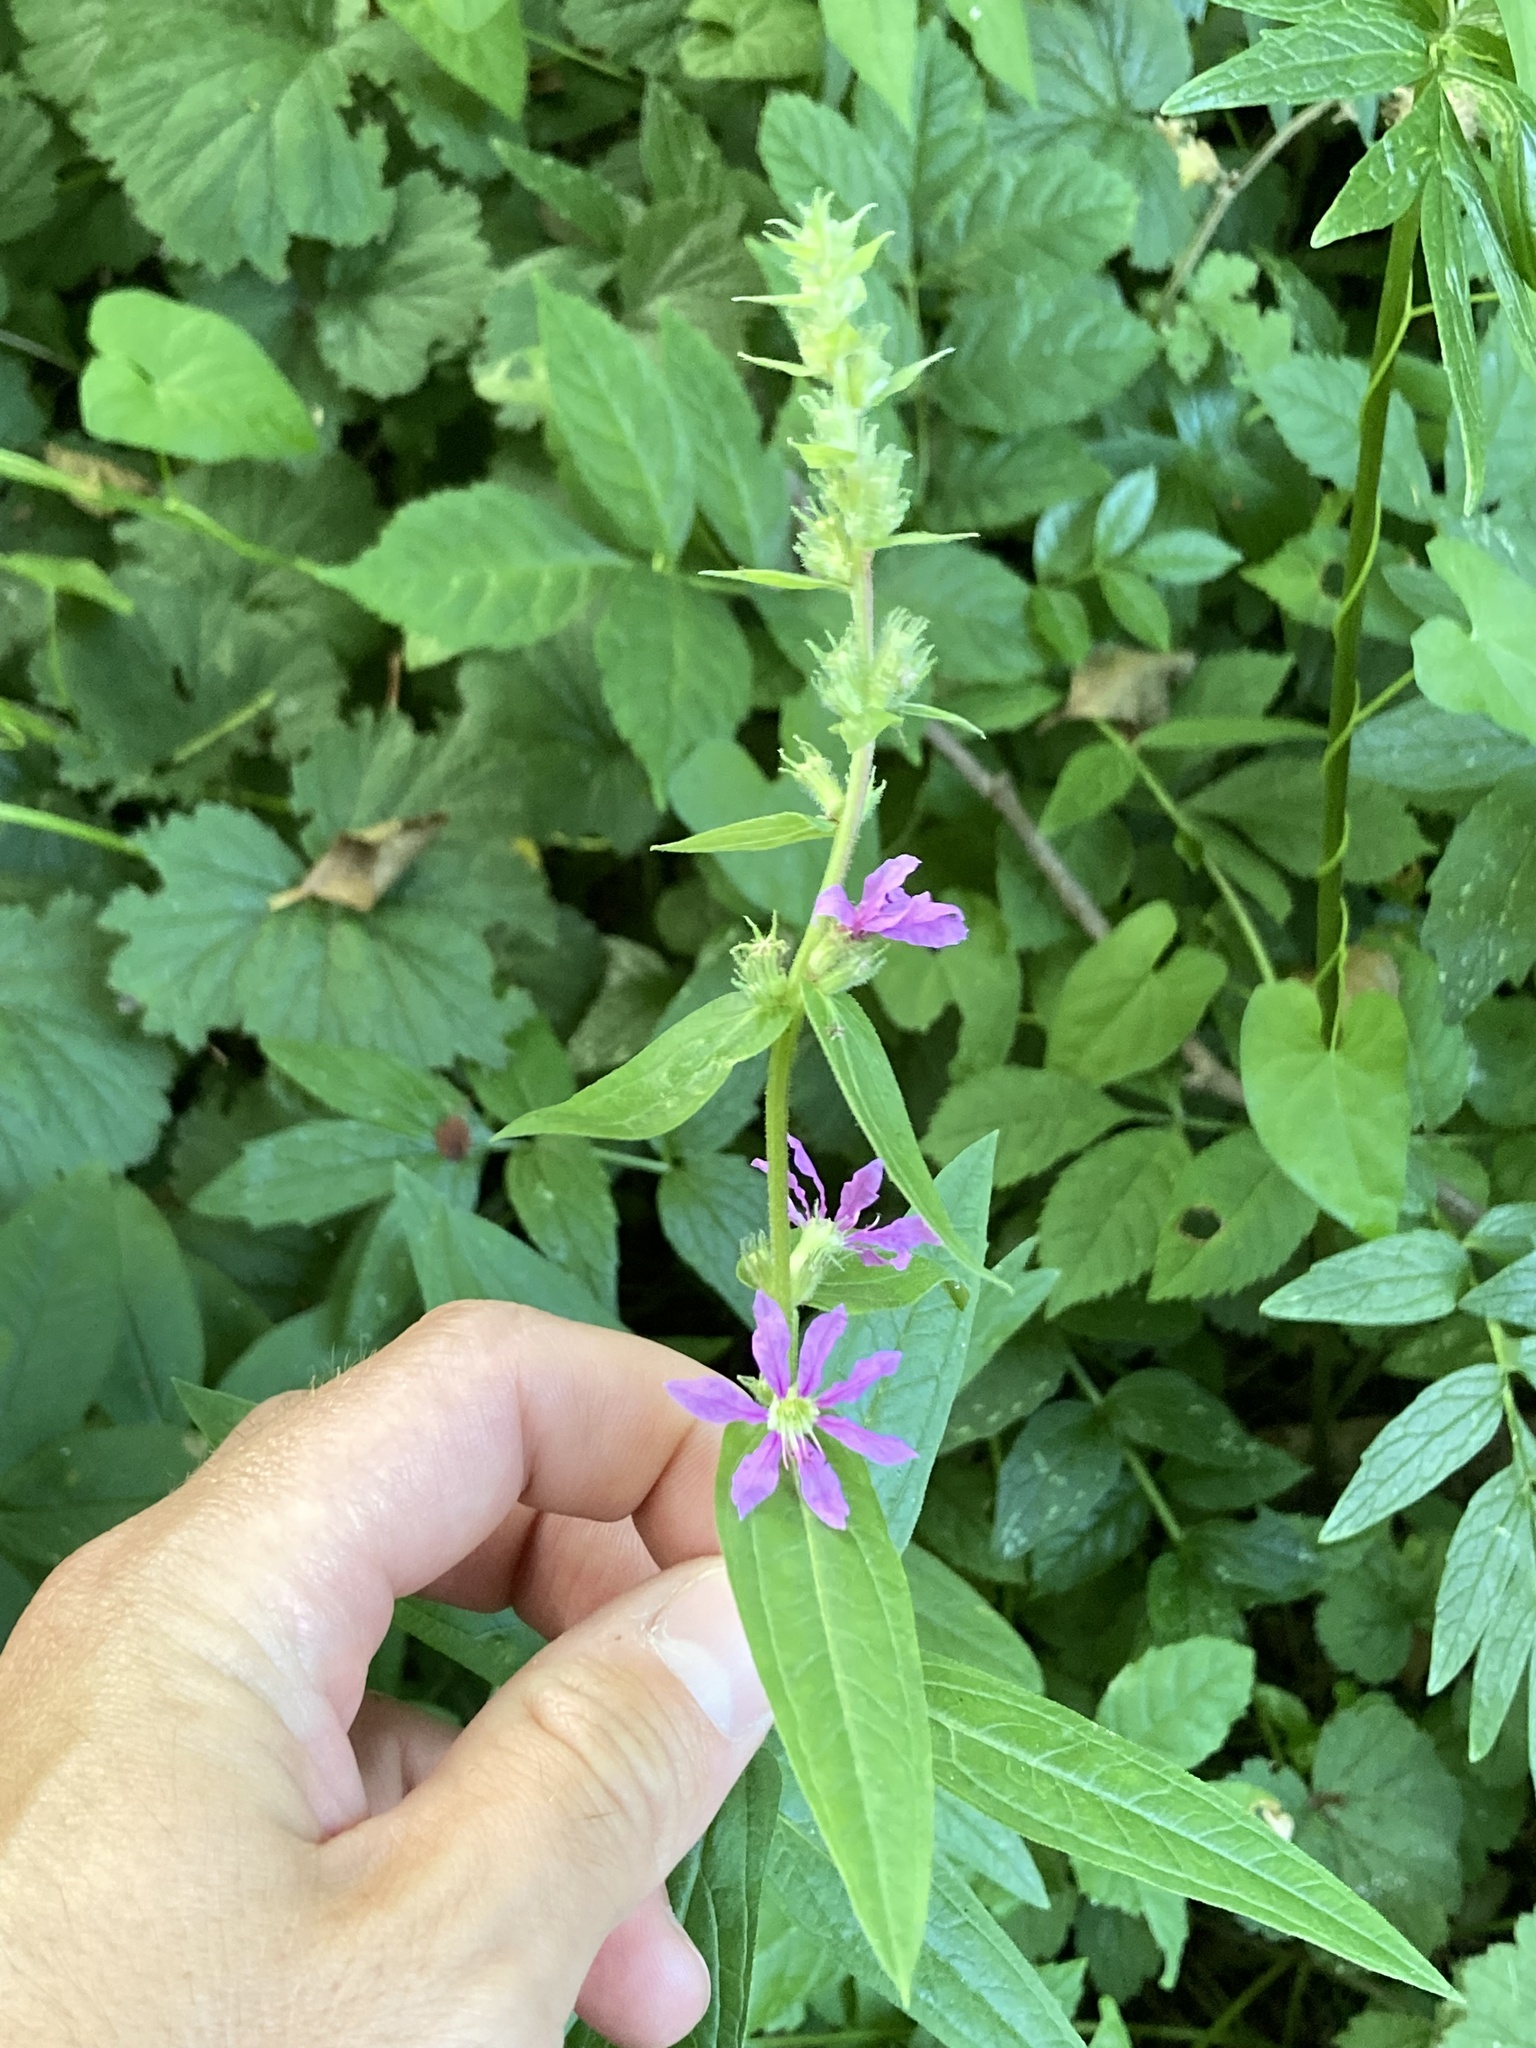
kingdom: Plantae
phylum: Tracheophyta
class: Magnoliopsida
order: Myrtales
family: Lythraceae
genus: Lythrum
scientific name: Lythrum salicaria
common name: Purple loosestrife
